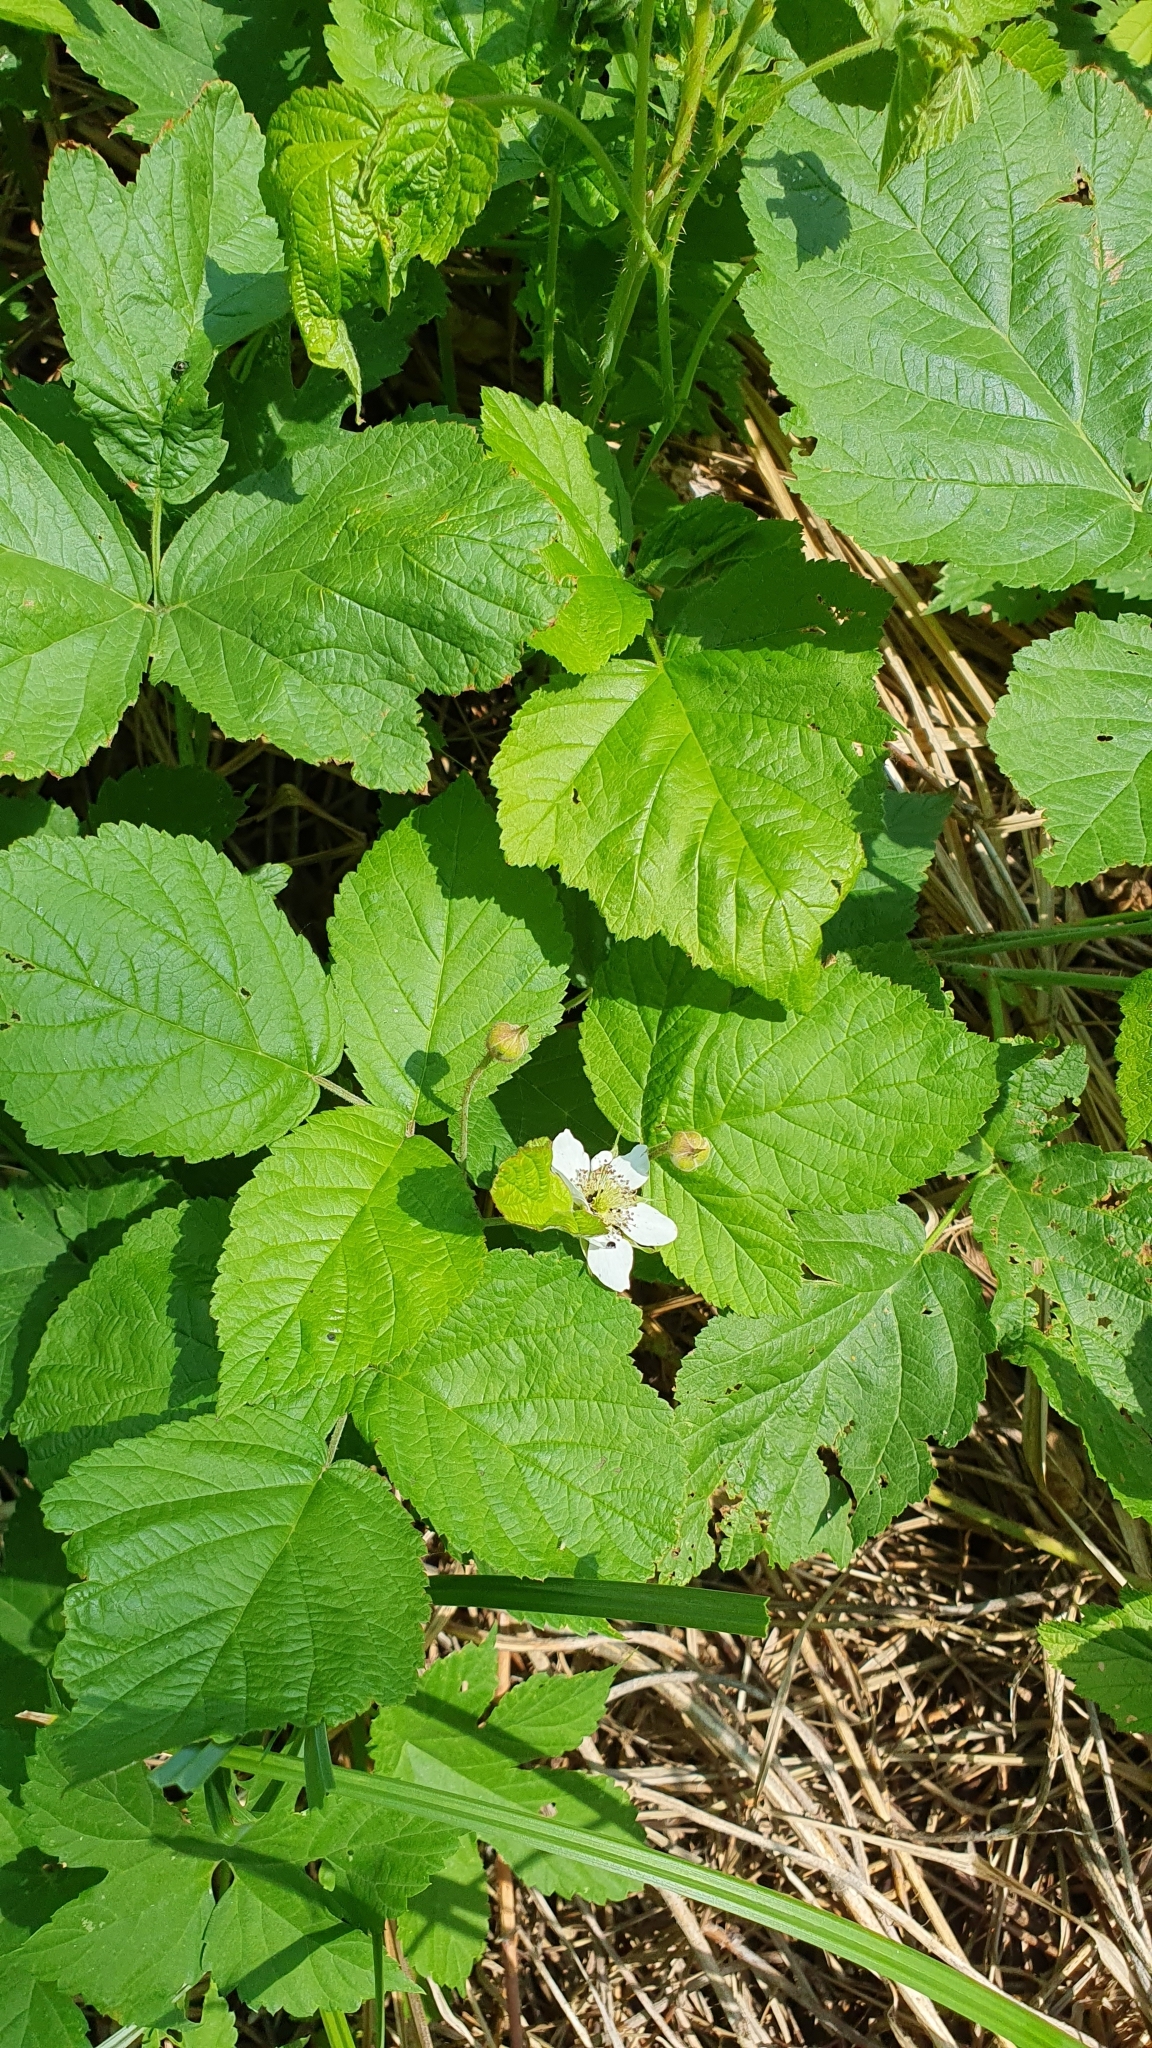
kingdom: Plantae
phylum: Tracheophyta
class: Magnoliopsida
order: Rosales
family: Rosaceae
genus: Rubus
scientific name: Rubus caesius
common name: Dewberry
